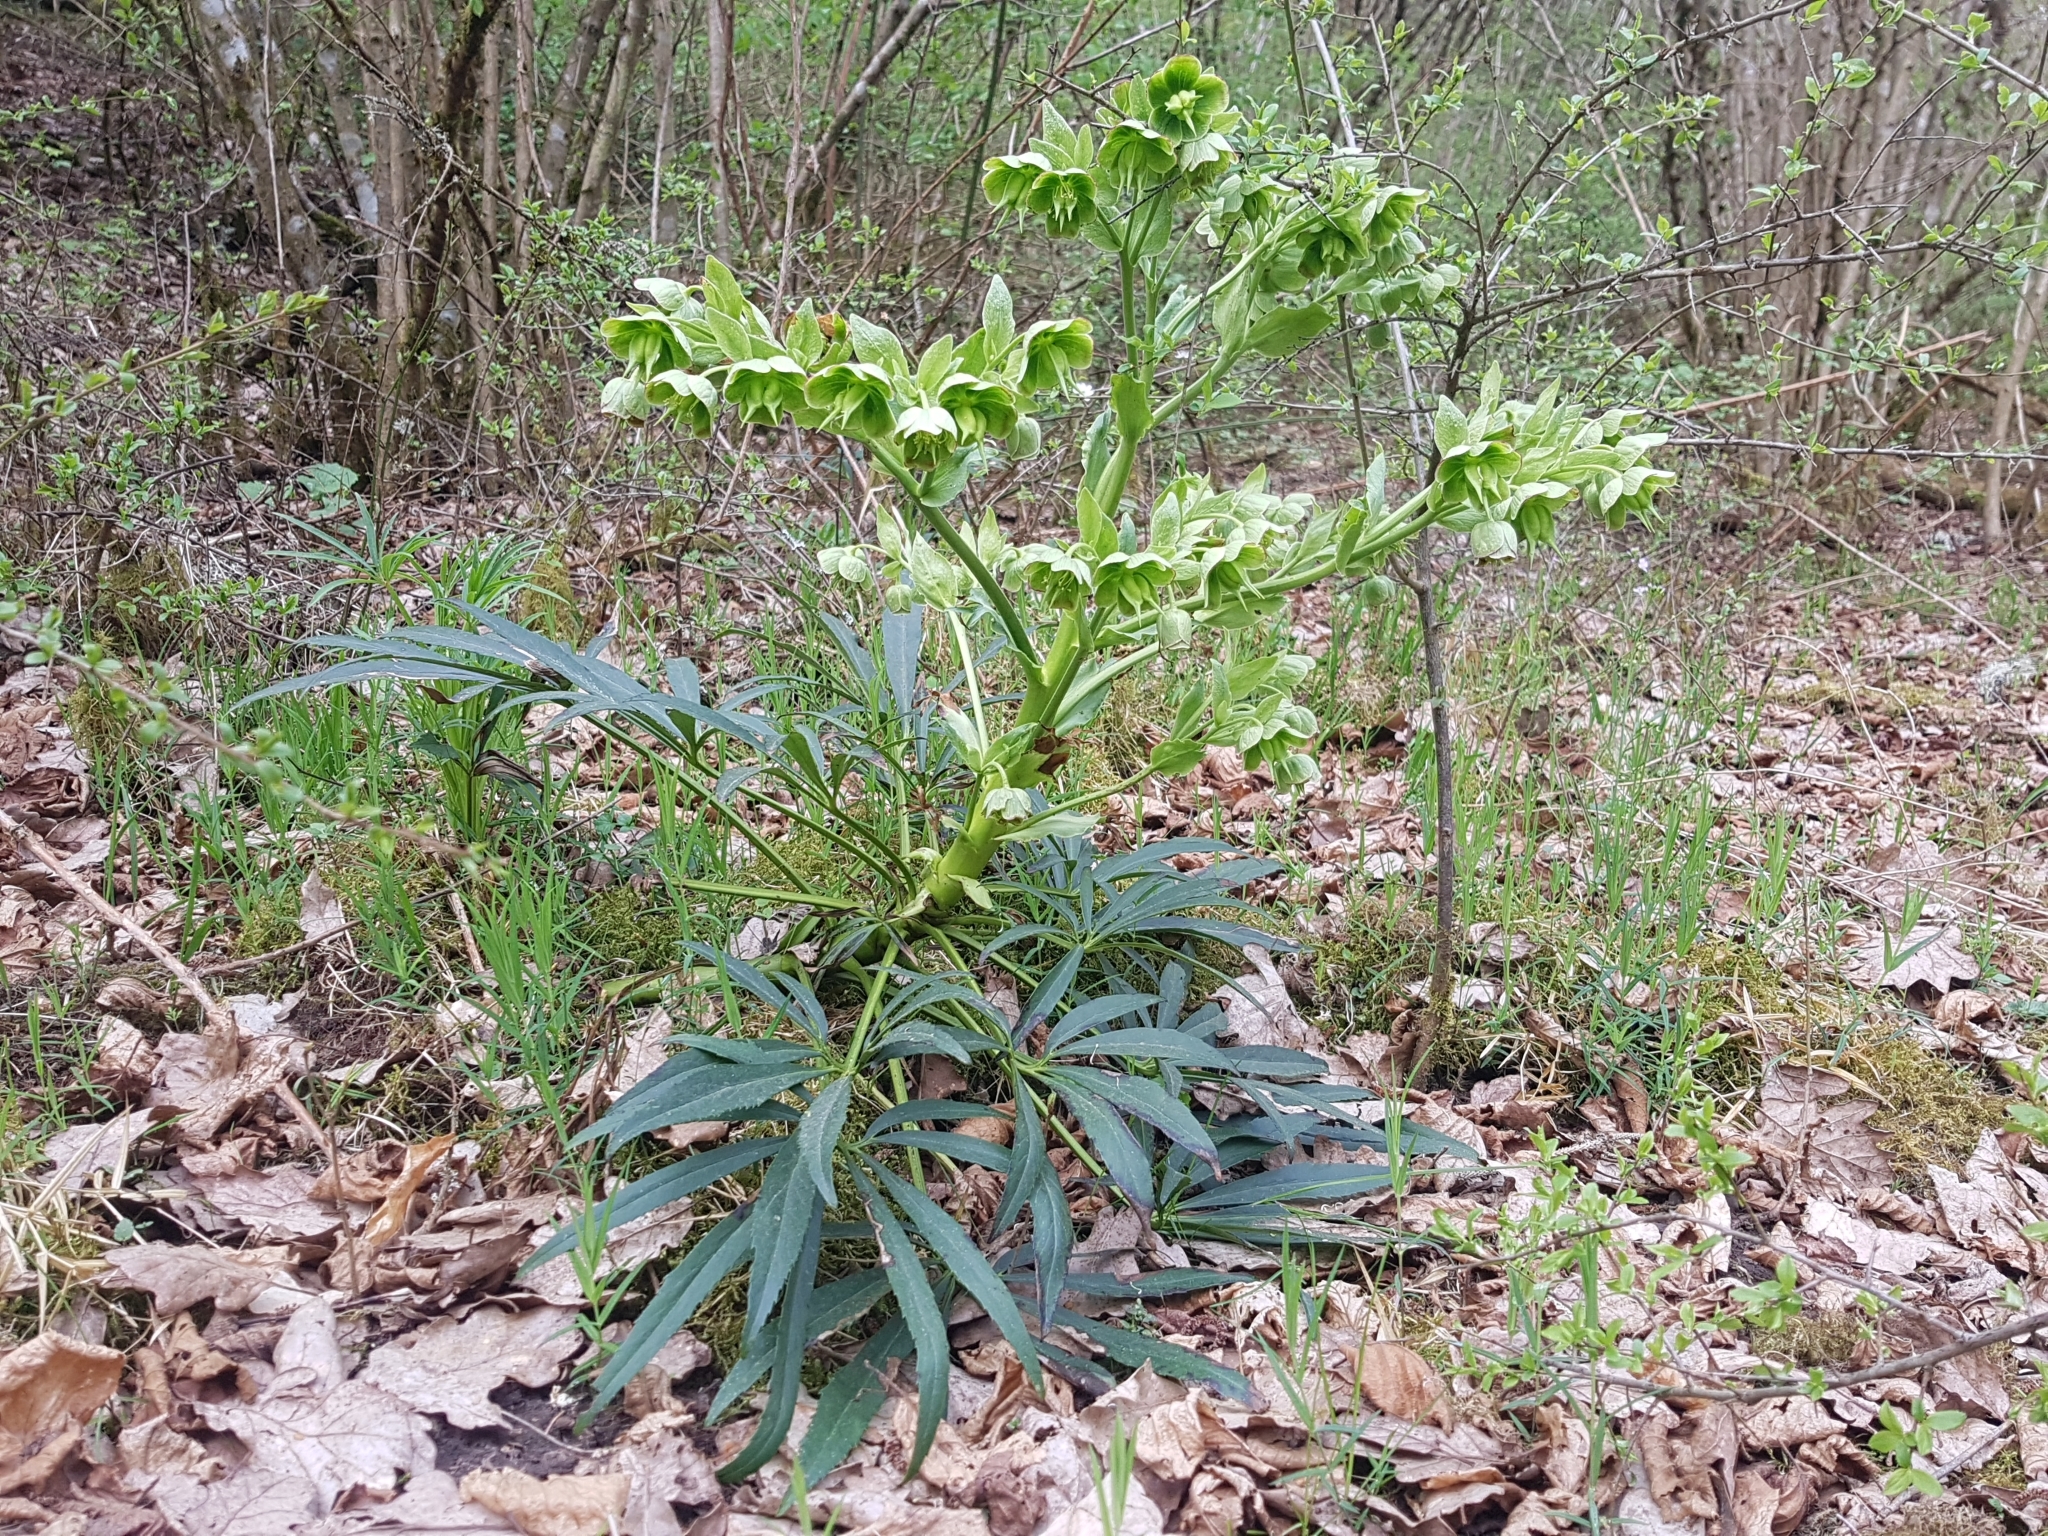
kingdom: Plantae
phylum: Tracheophyta
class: Magnoliopsida
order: Ranunculales
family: Ranunculaceae
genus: Helleborus
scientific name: Helleborus foetidus
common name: Stinking hellebore
